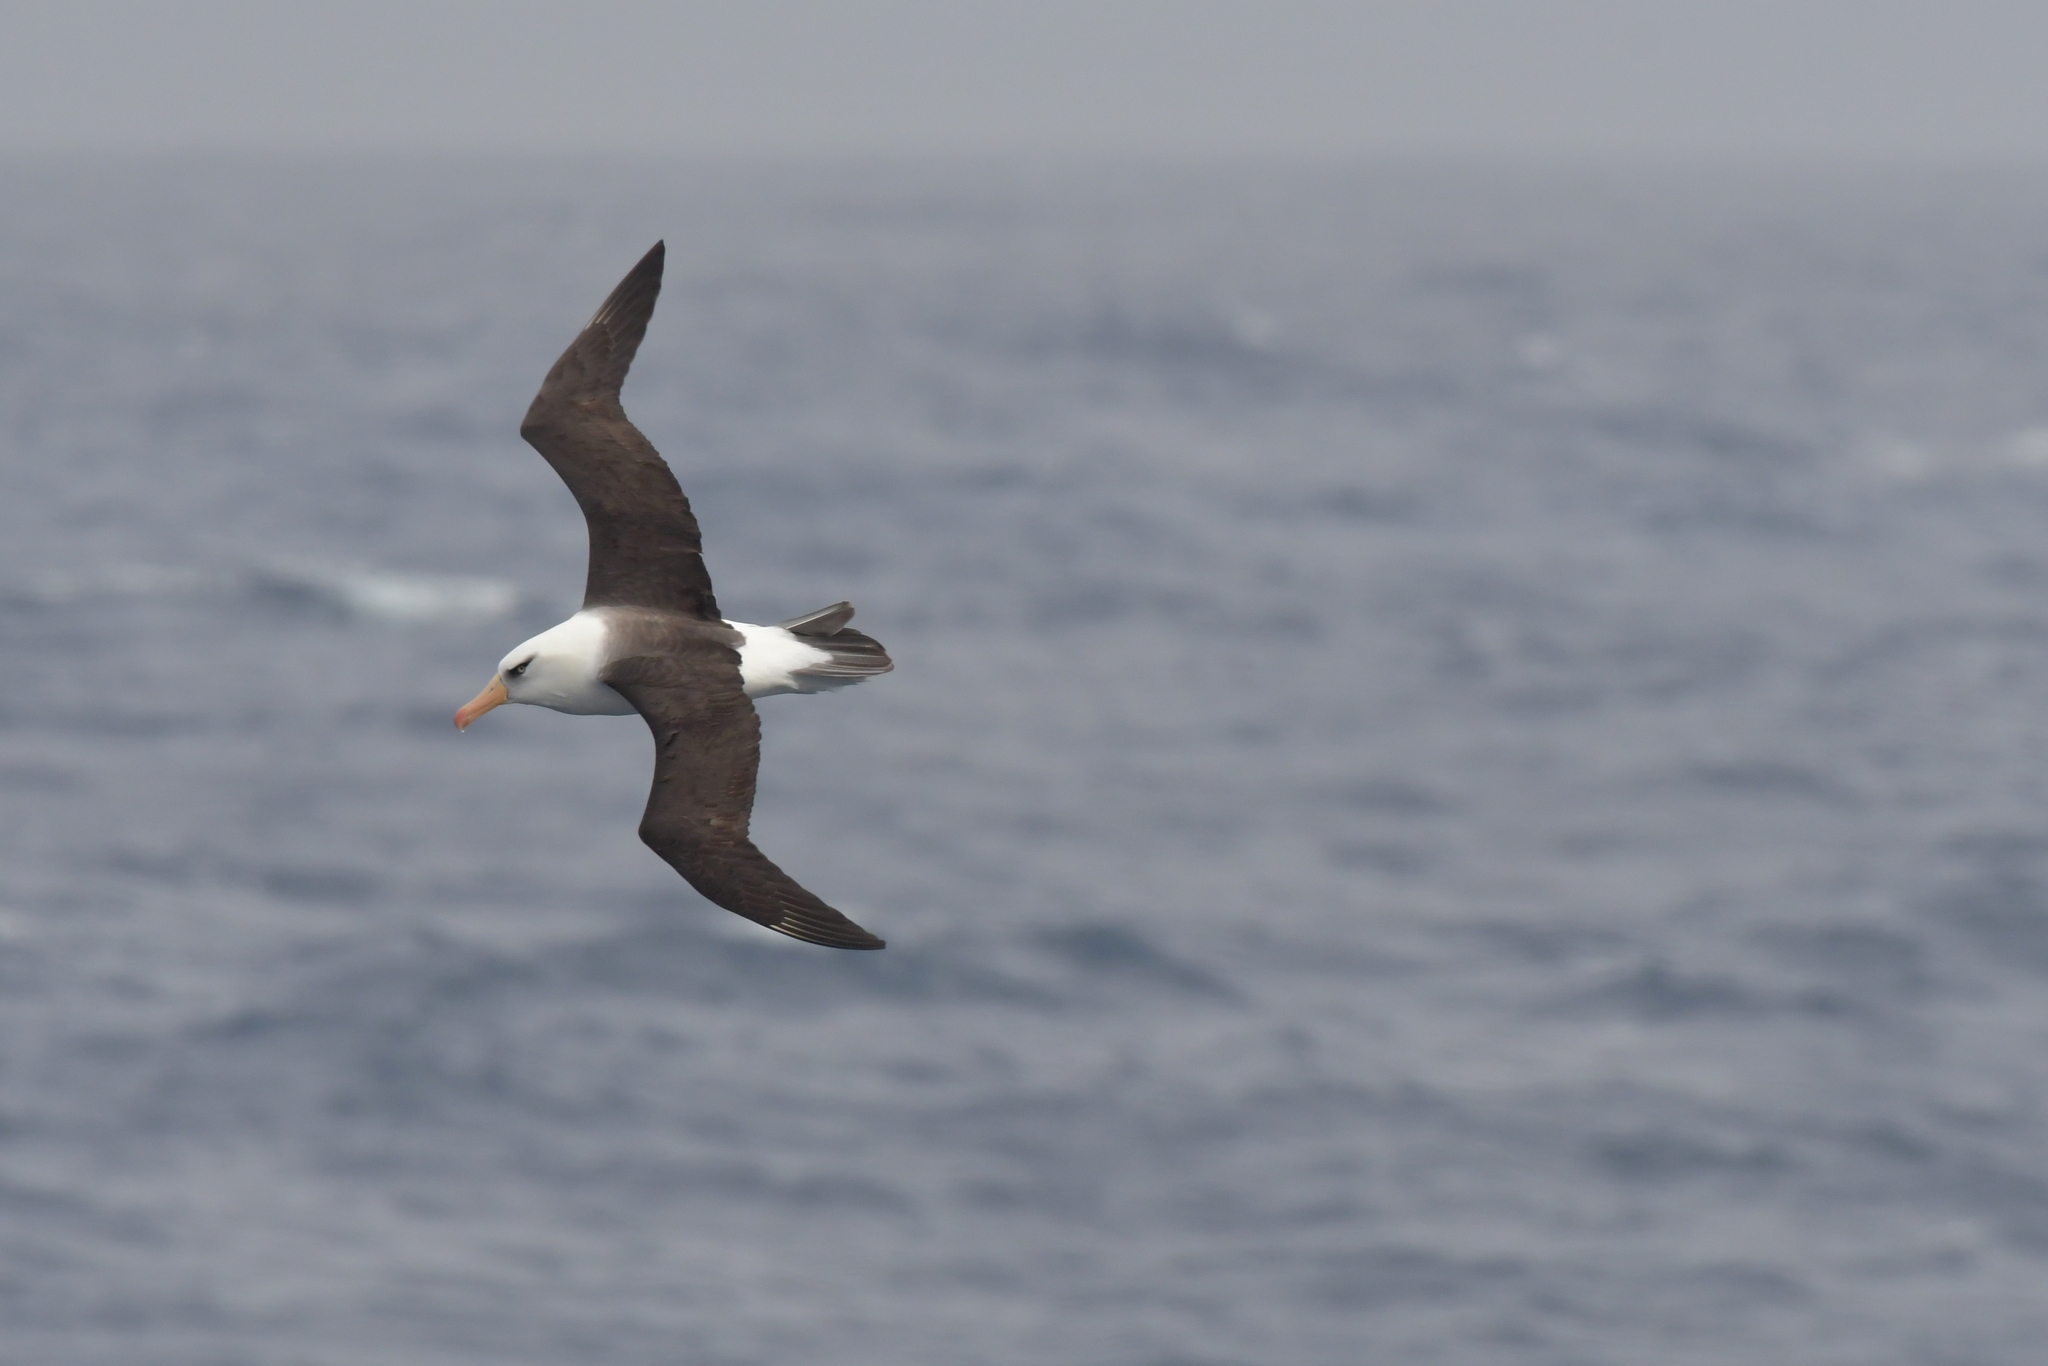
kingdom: Animalia
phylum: Chordata
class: Aves
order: Procellariiformes
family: Diomedeidae
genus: Thalassarche
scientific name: Thalassarche impavida
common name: Campbell albatross
